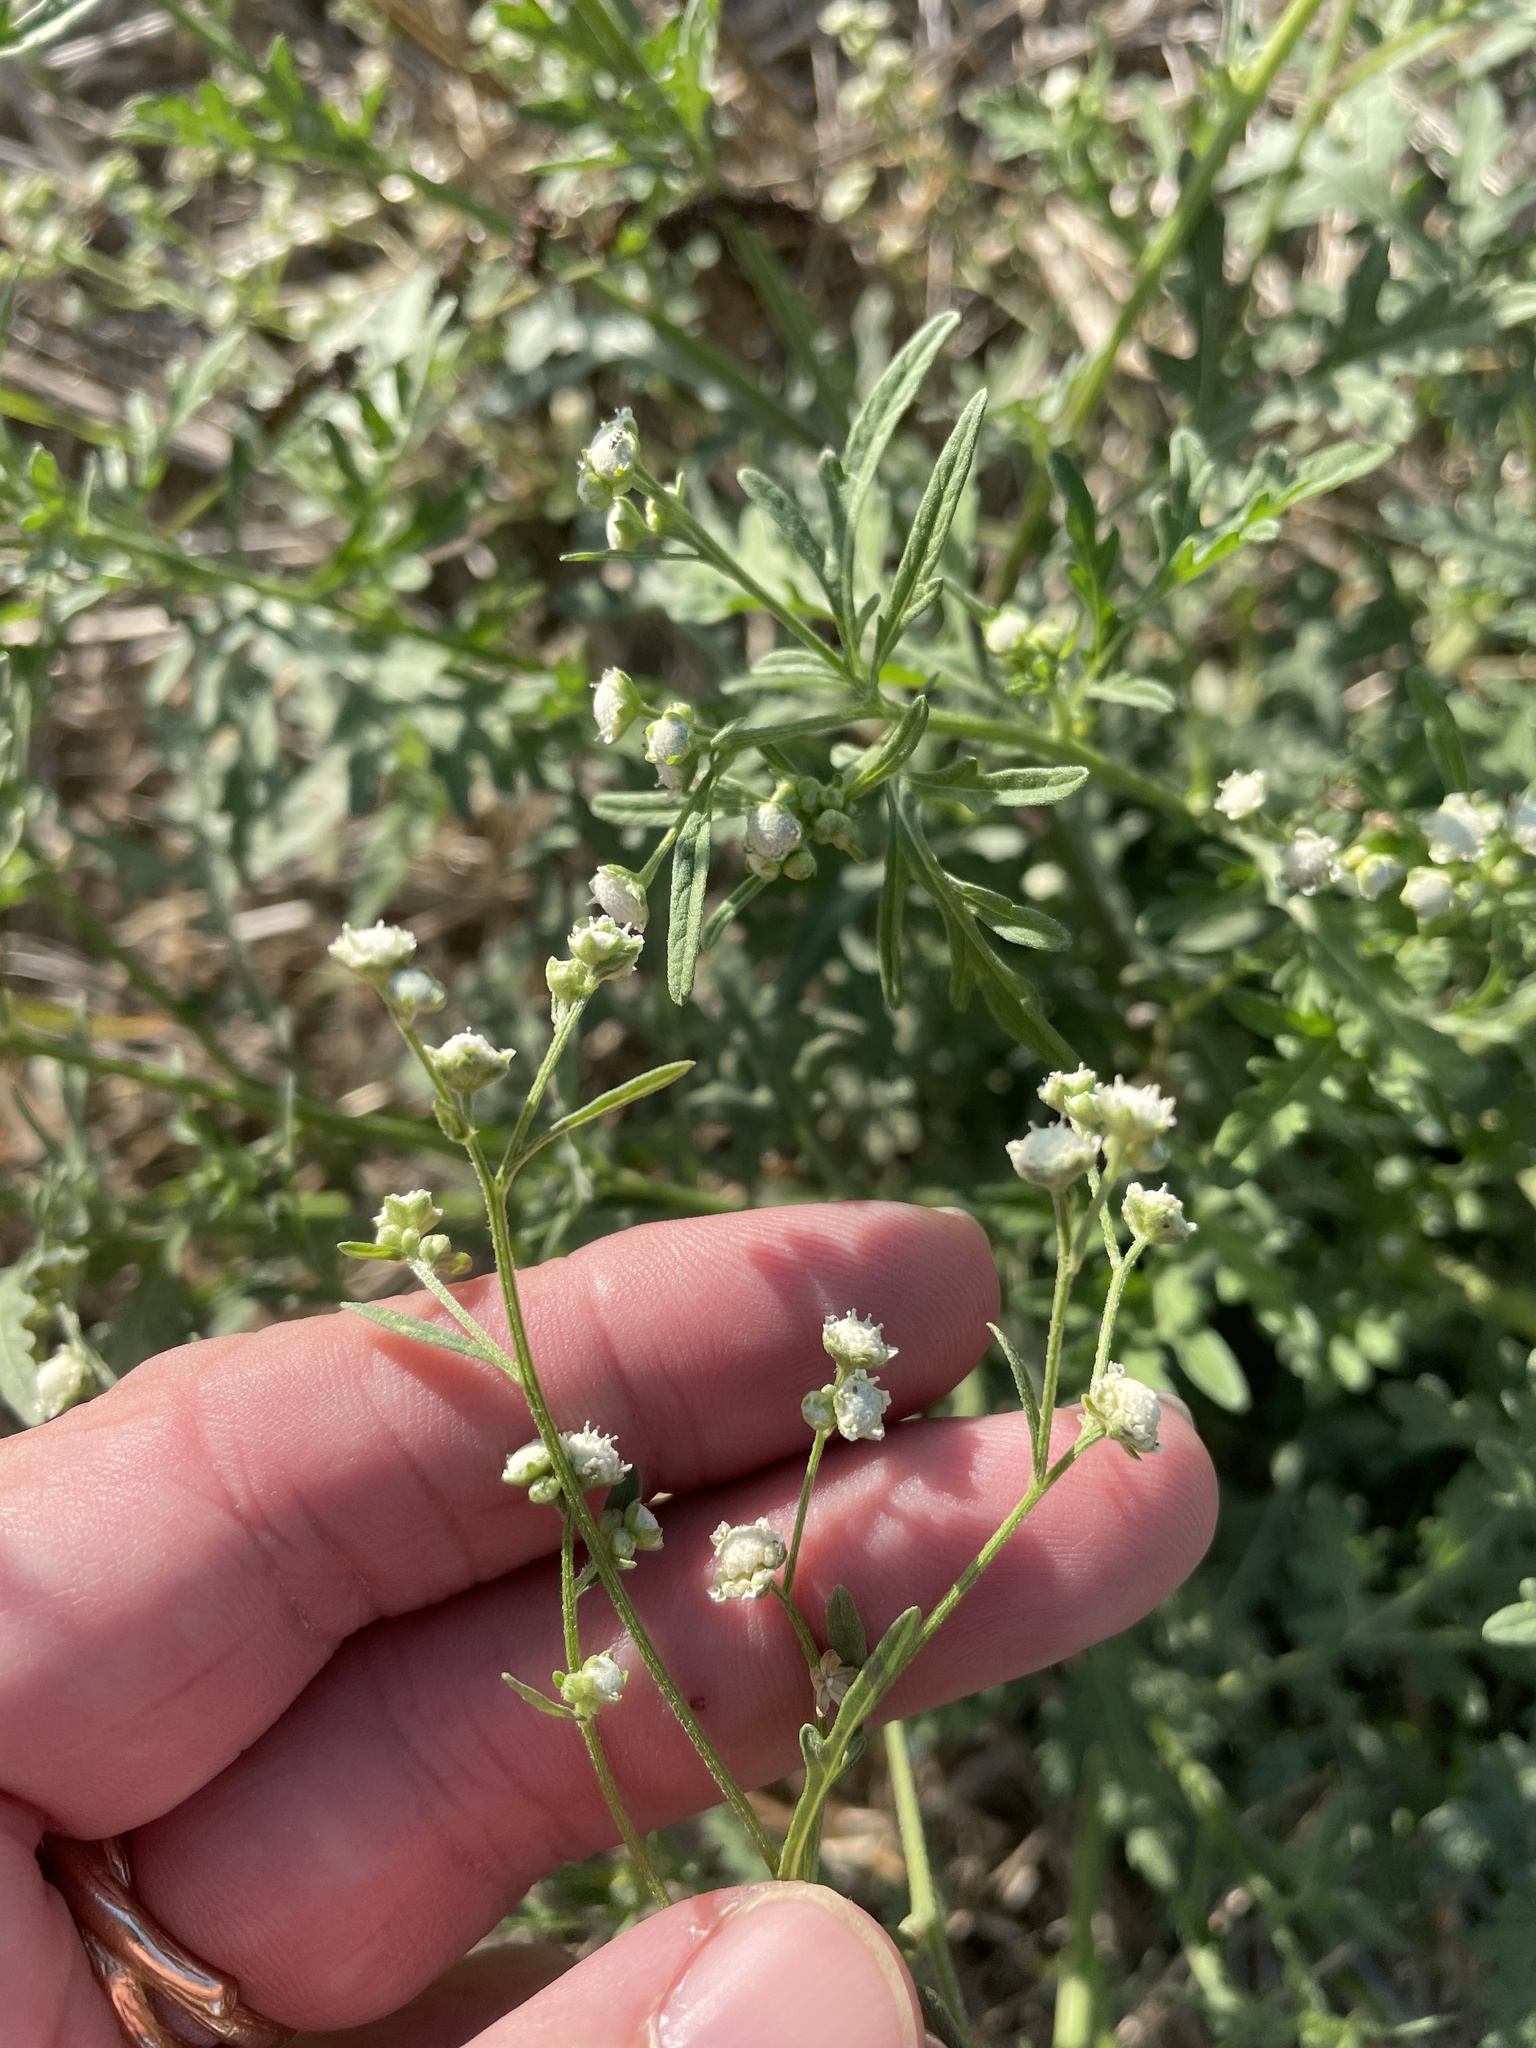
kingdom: Plantae
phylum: Tracheophyta
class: Magnoliopsida
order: Asterales
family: Asteraceae
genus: Parthenium
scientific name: Parthenium hysterophorus
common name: Santa maria feverfew
